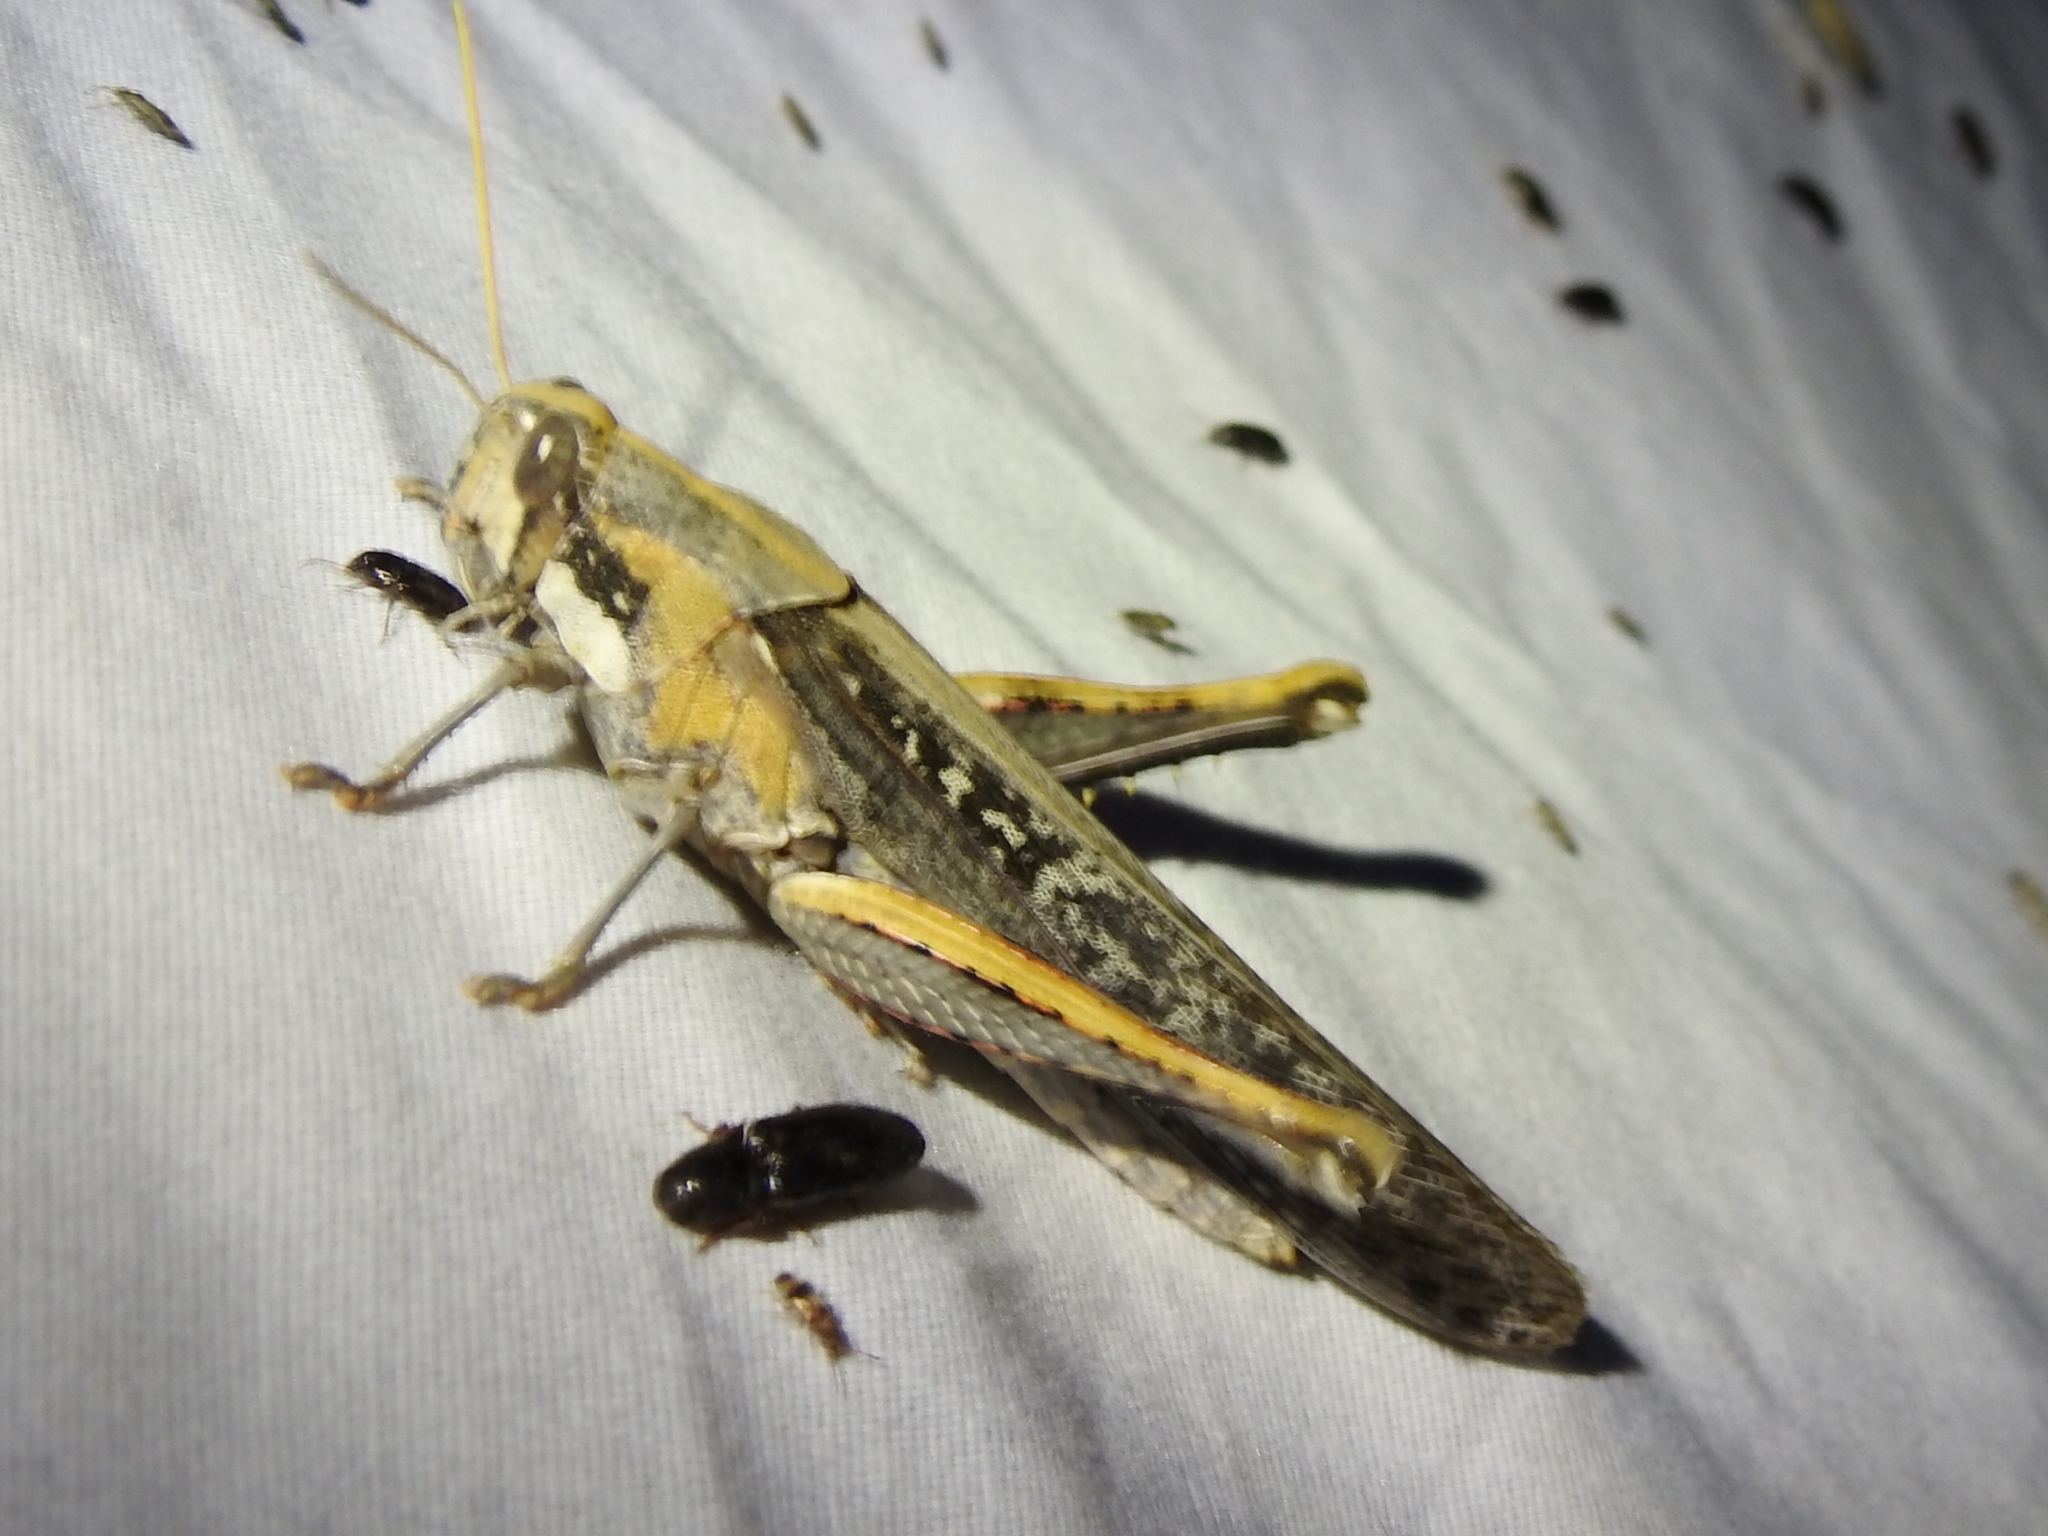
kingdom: Animalia
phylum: Arthropoda
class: Insecta
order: Orthoptera
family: Acrididae
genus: Schistocerca
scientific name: Schistocerca nitens
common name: Vagrant grasshopper
